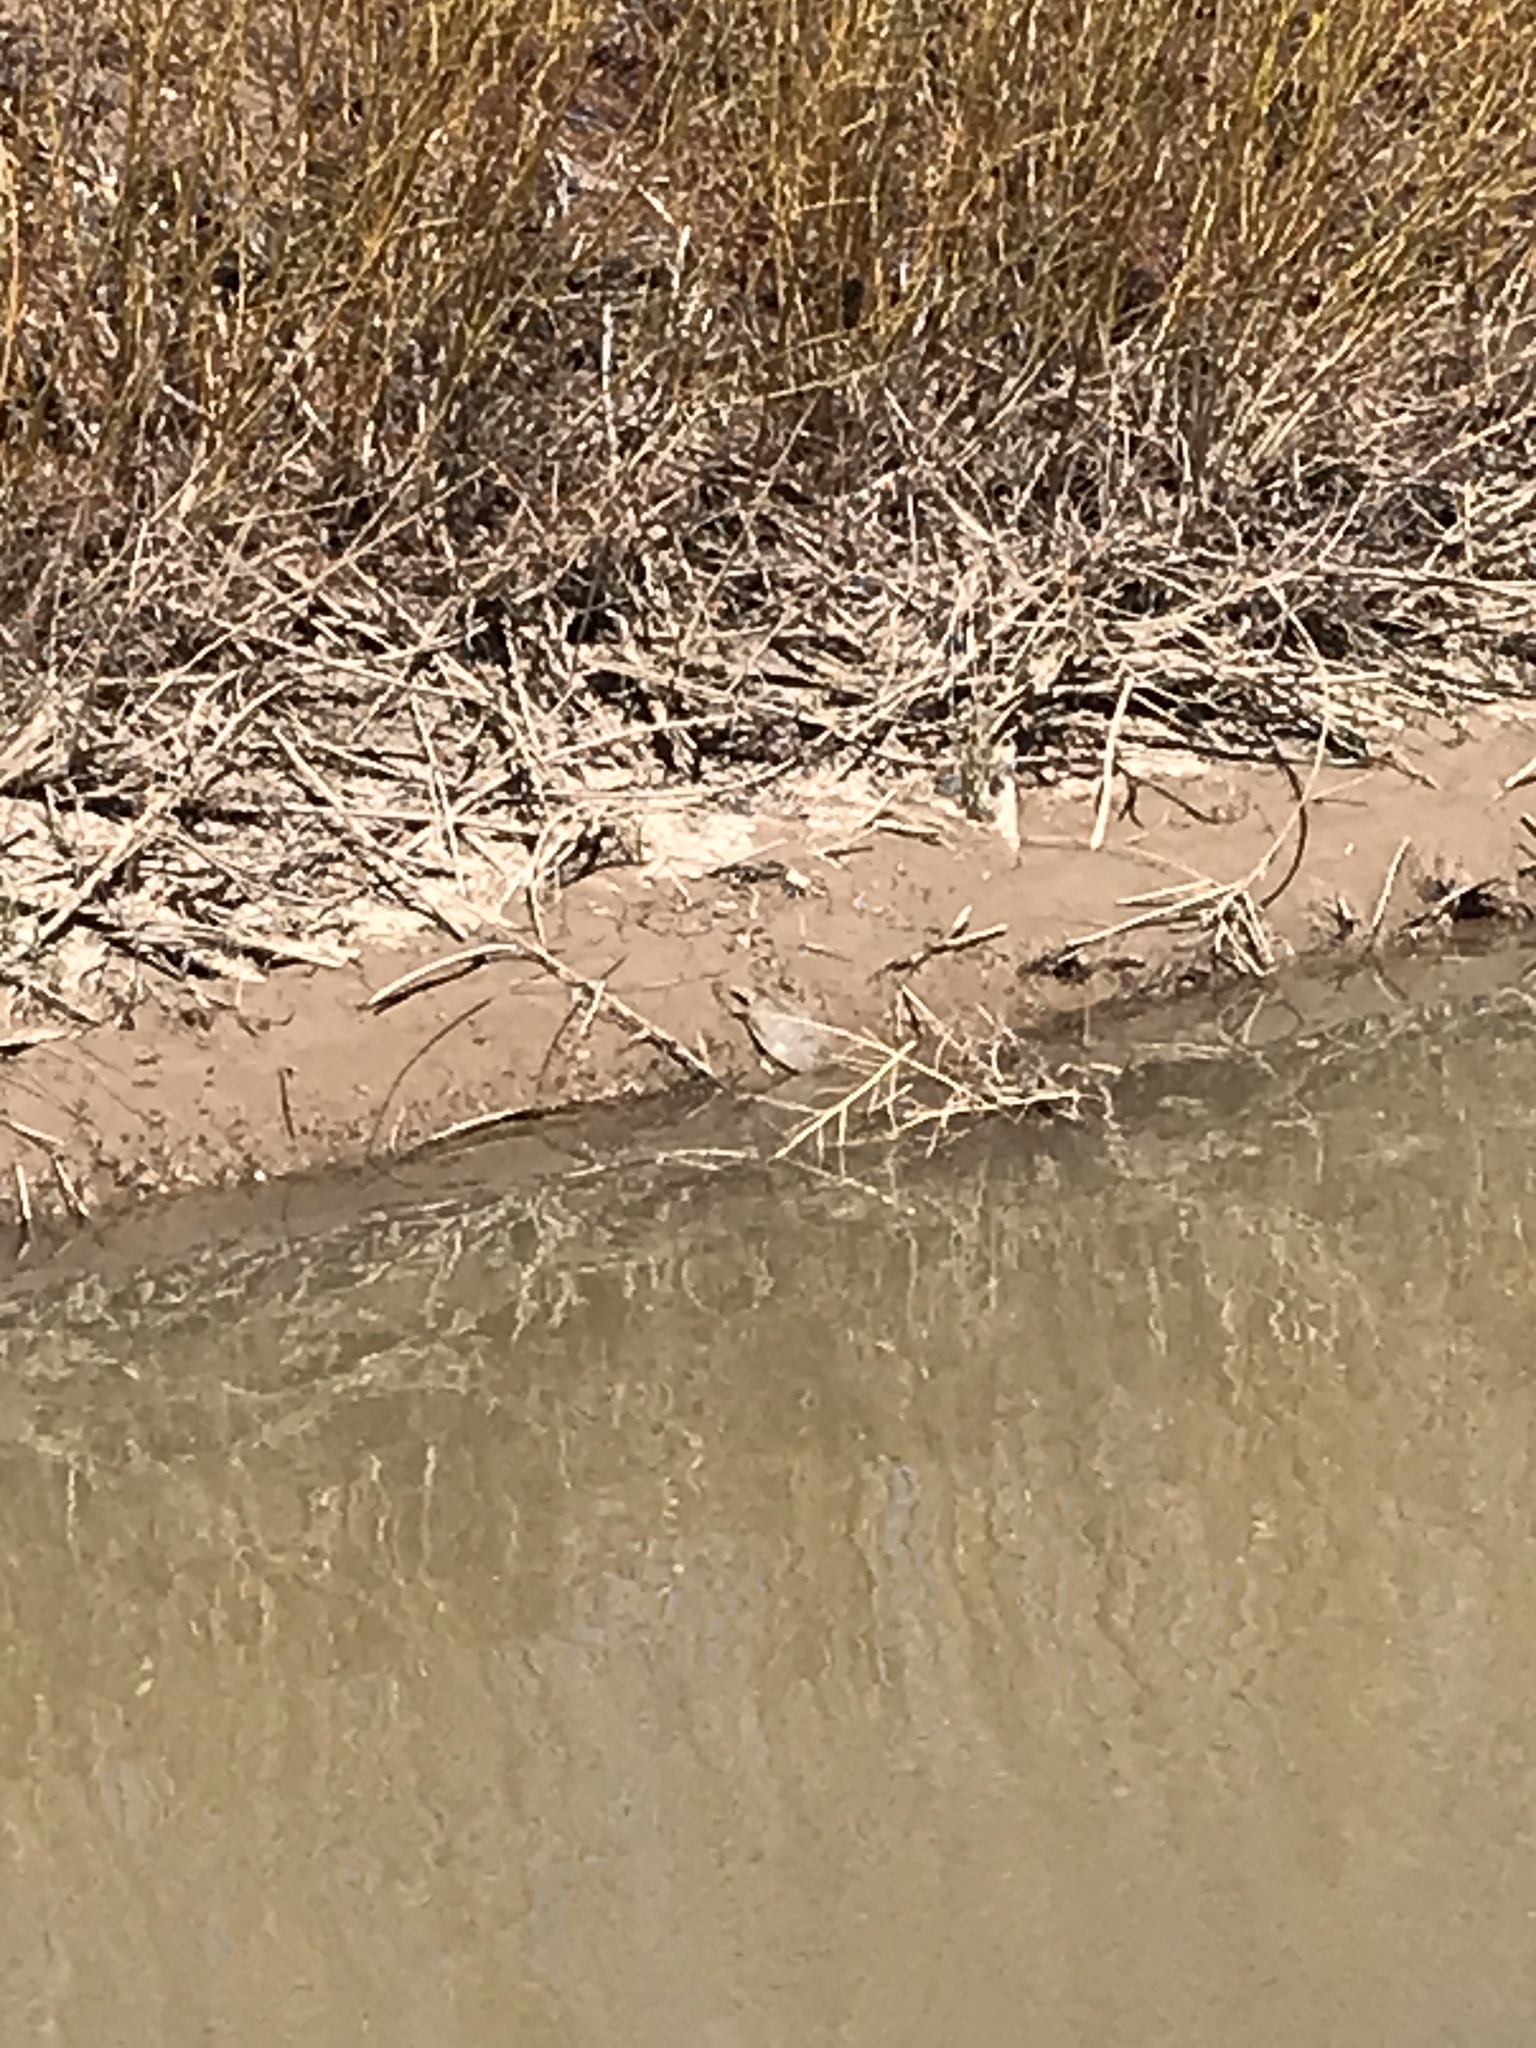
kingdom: Animalia
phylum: Chordata
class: Testudines
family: Trionychidae
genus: Apalone
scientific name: Apalone spinifera
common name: Spiny softshell turtle
